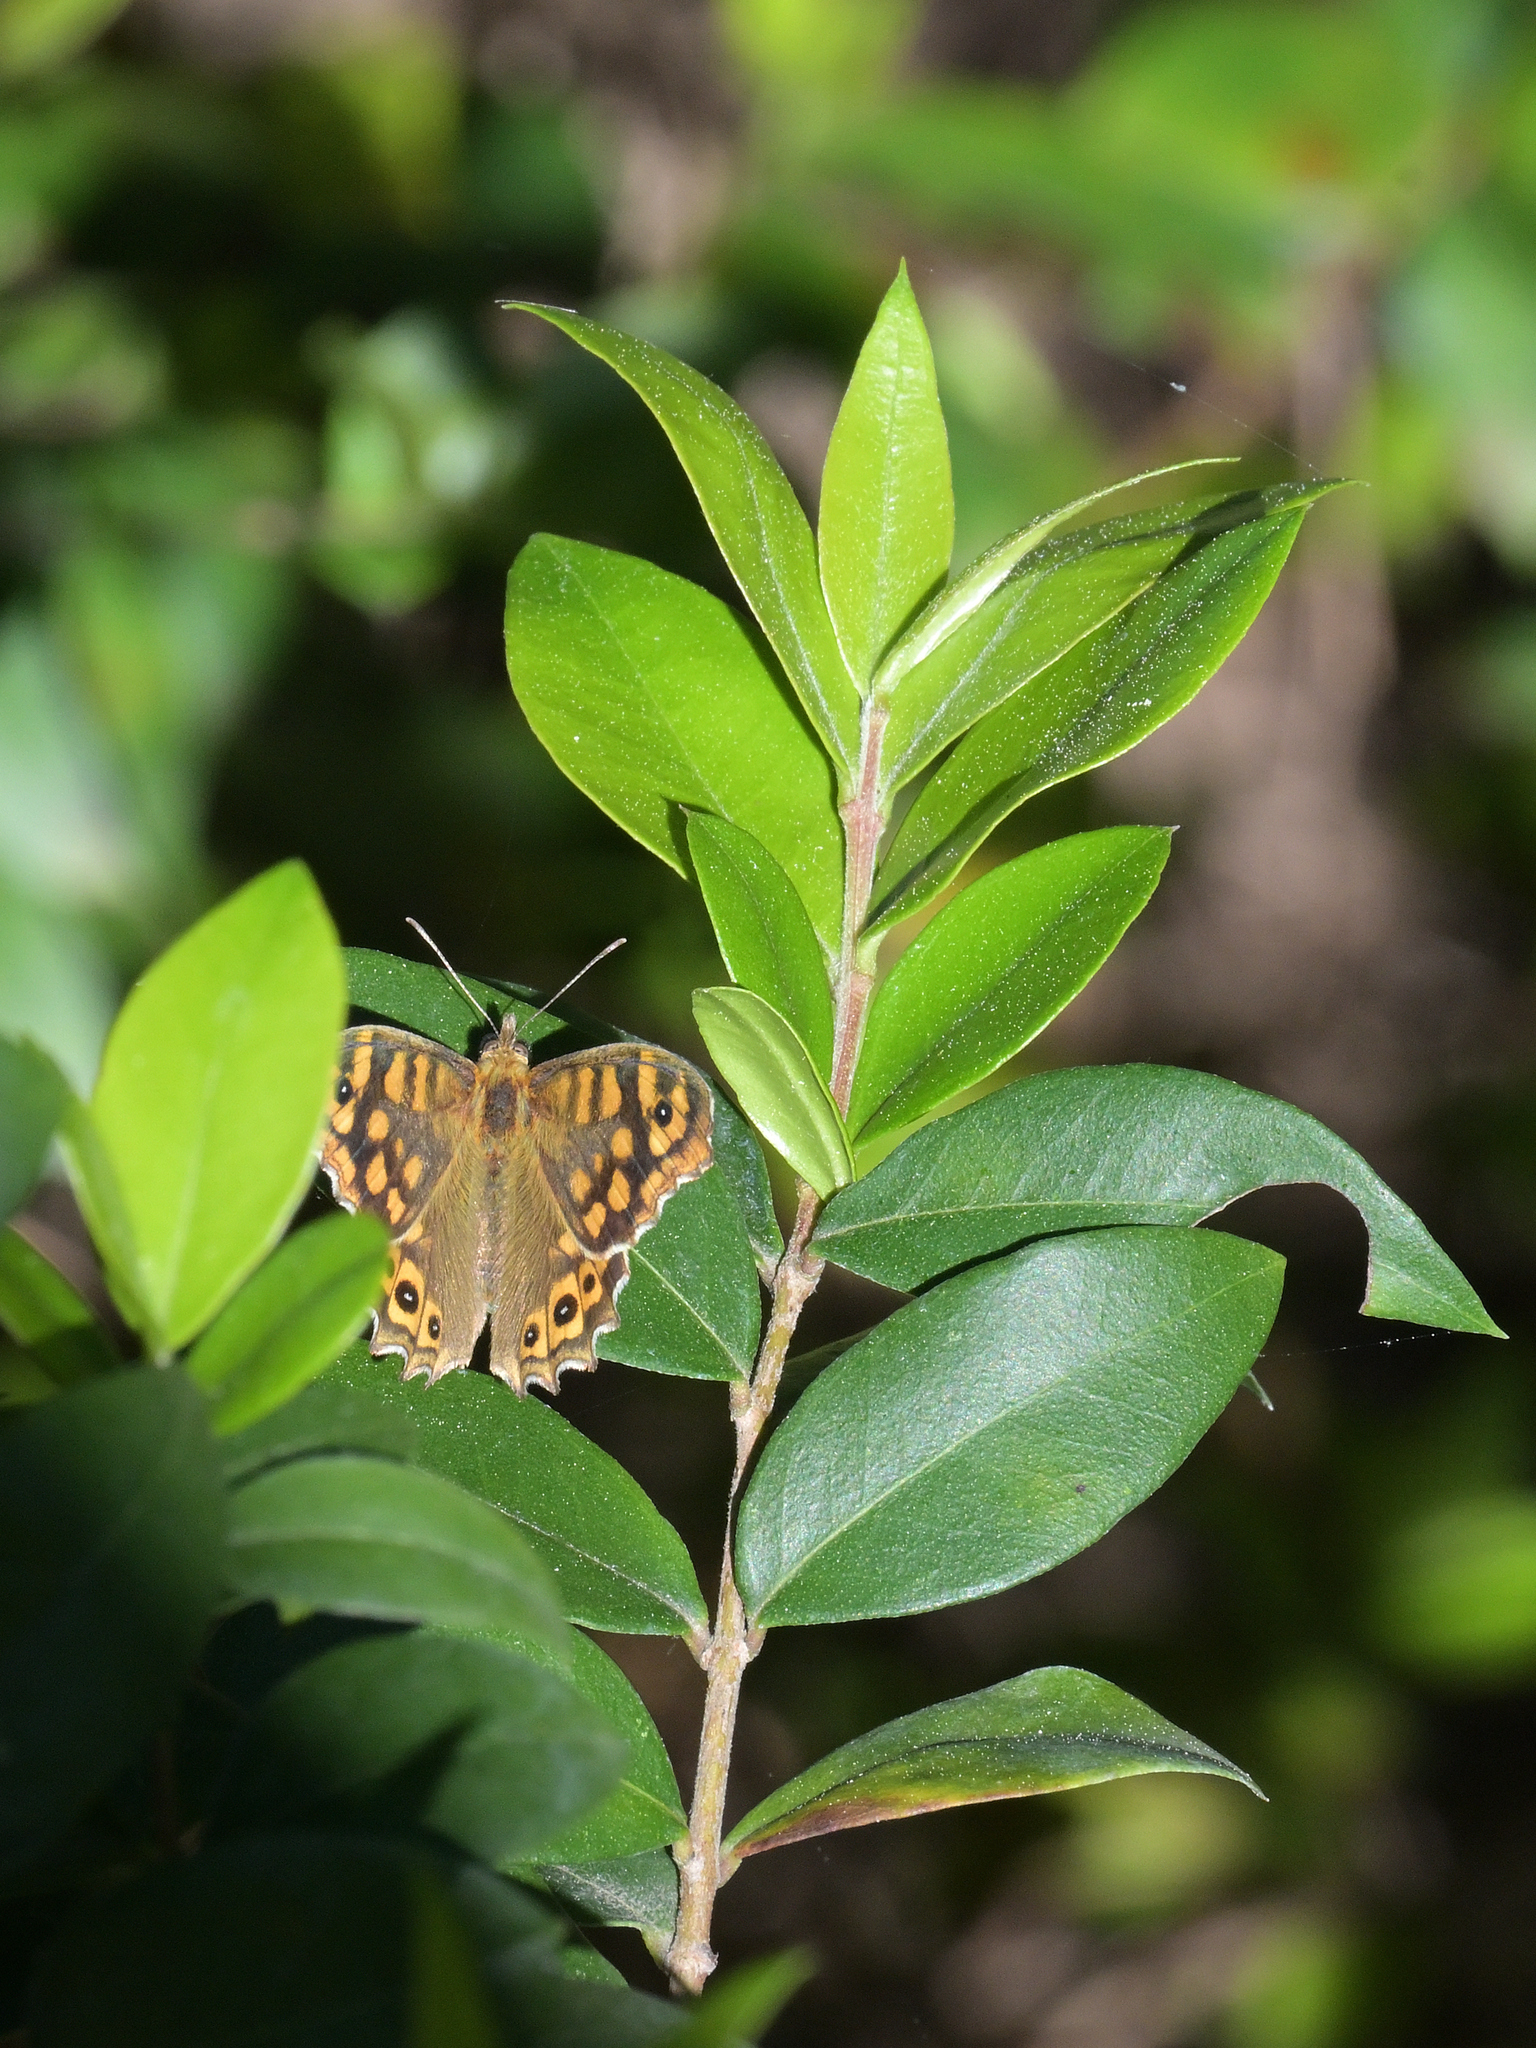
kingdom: Animalia
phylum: Arthropoda
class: Insecta
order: Lepidoptera
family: Nymphalidae
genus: Pararge
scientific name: Pararge aegeria
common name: Speckled wood
